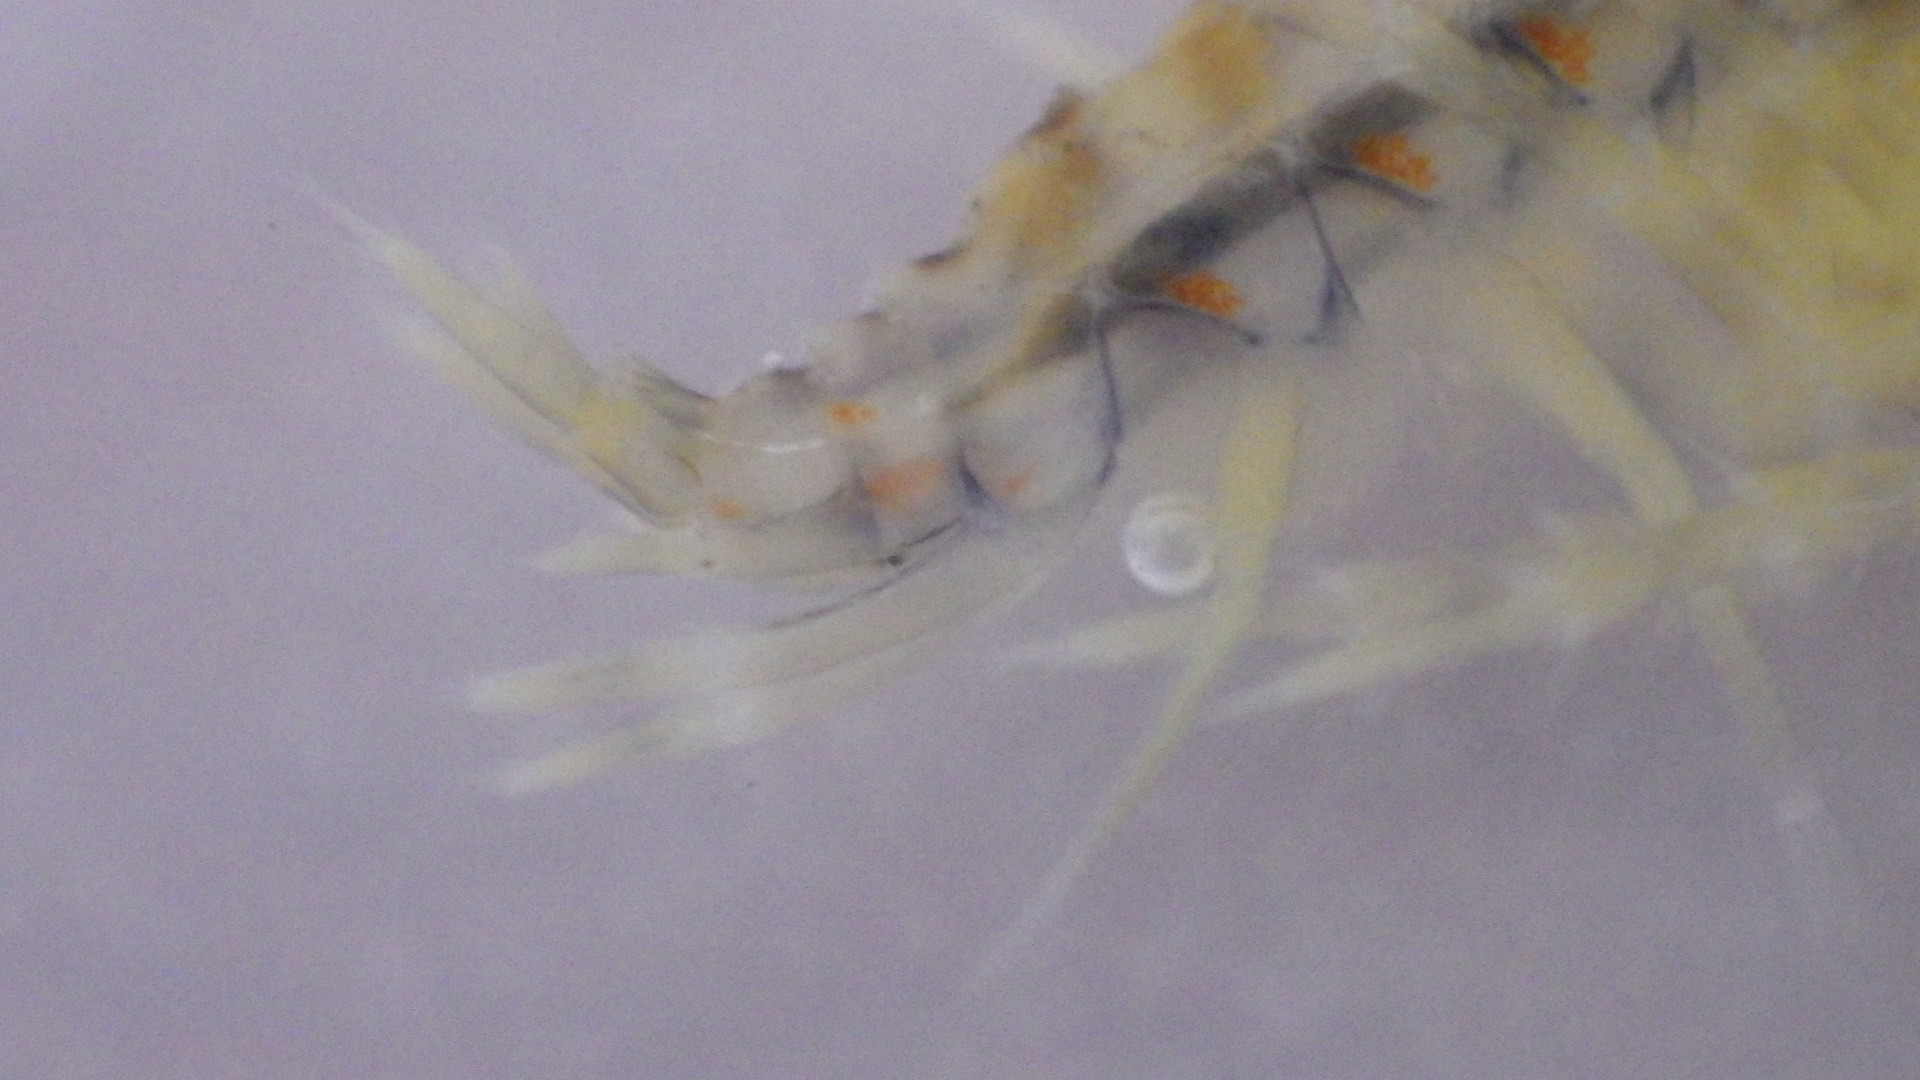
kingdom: Animalia
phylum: Arthropoda
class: Malacostraca
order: Amphipoda
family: Gammaridae
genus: Gammarus
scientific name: Gammarus fasciatus
